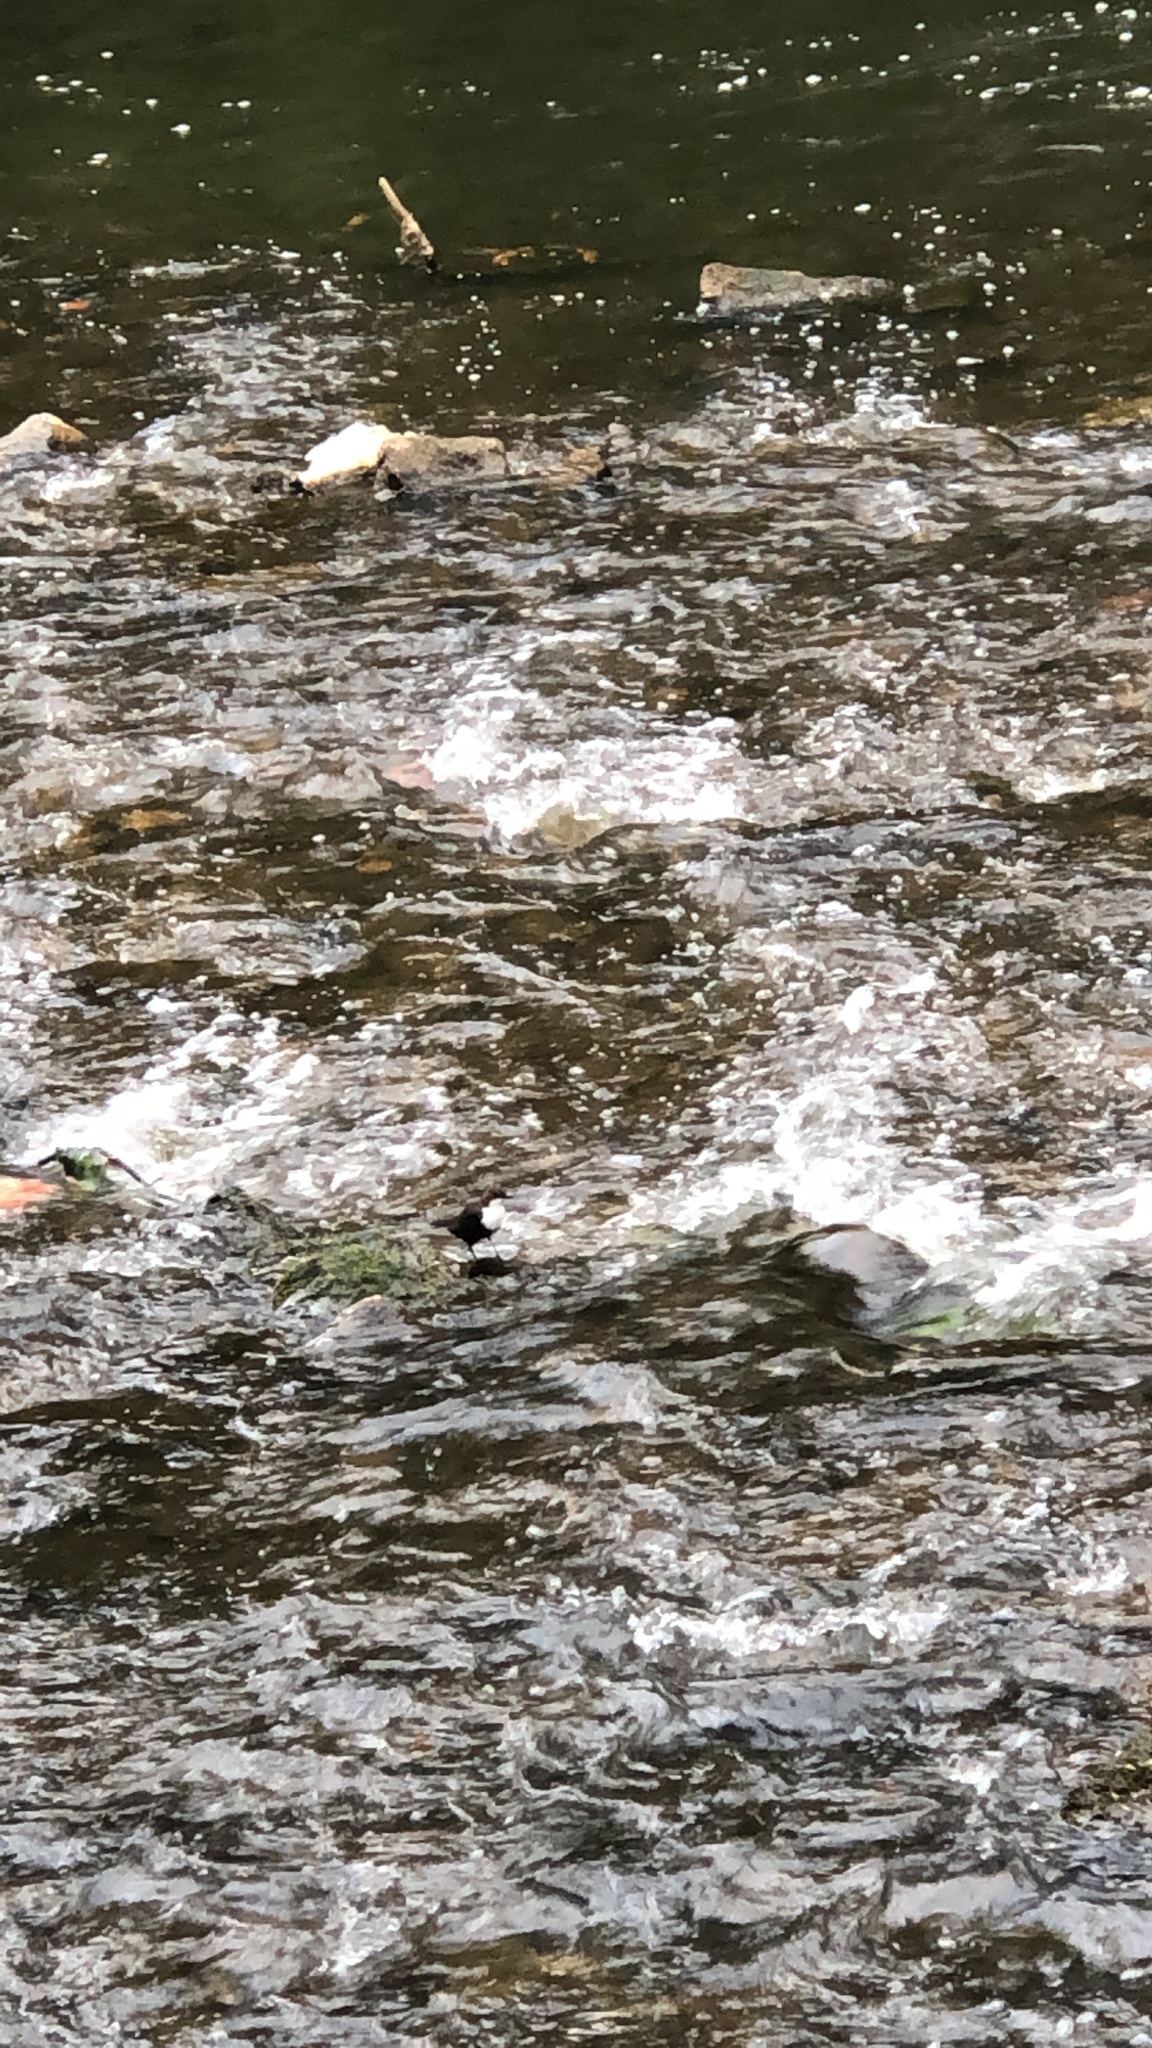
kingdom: Animalia
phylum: Chordata
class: Aves
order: Passeriformes
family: Cinclidae
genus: Cinclus
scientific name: Cinclus cinclus
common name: White-throated dipper
